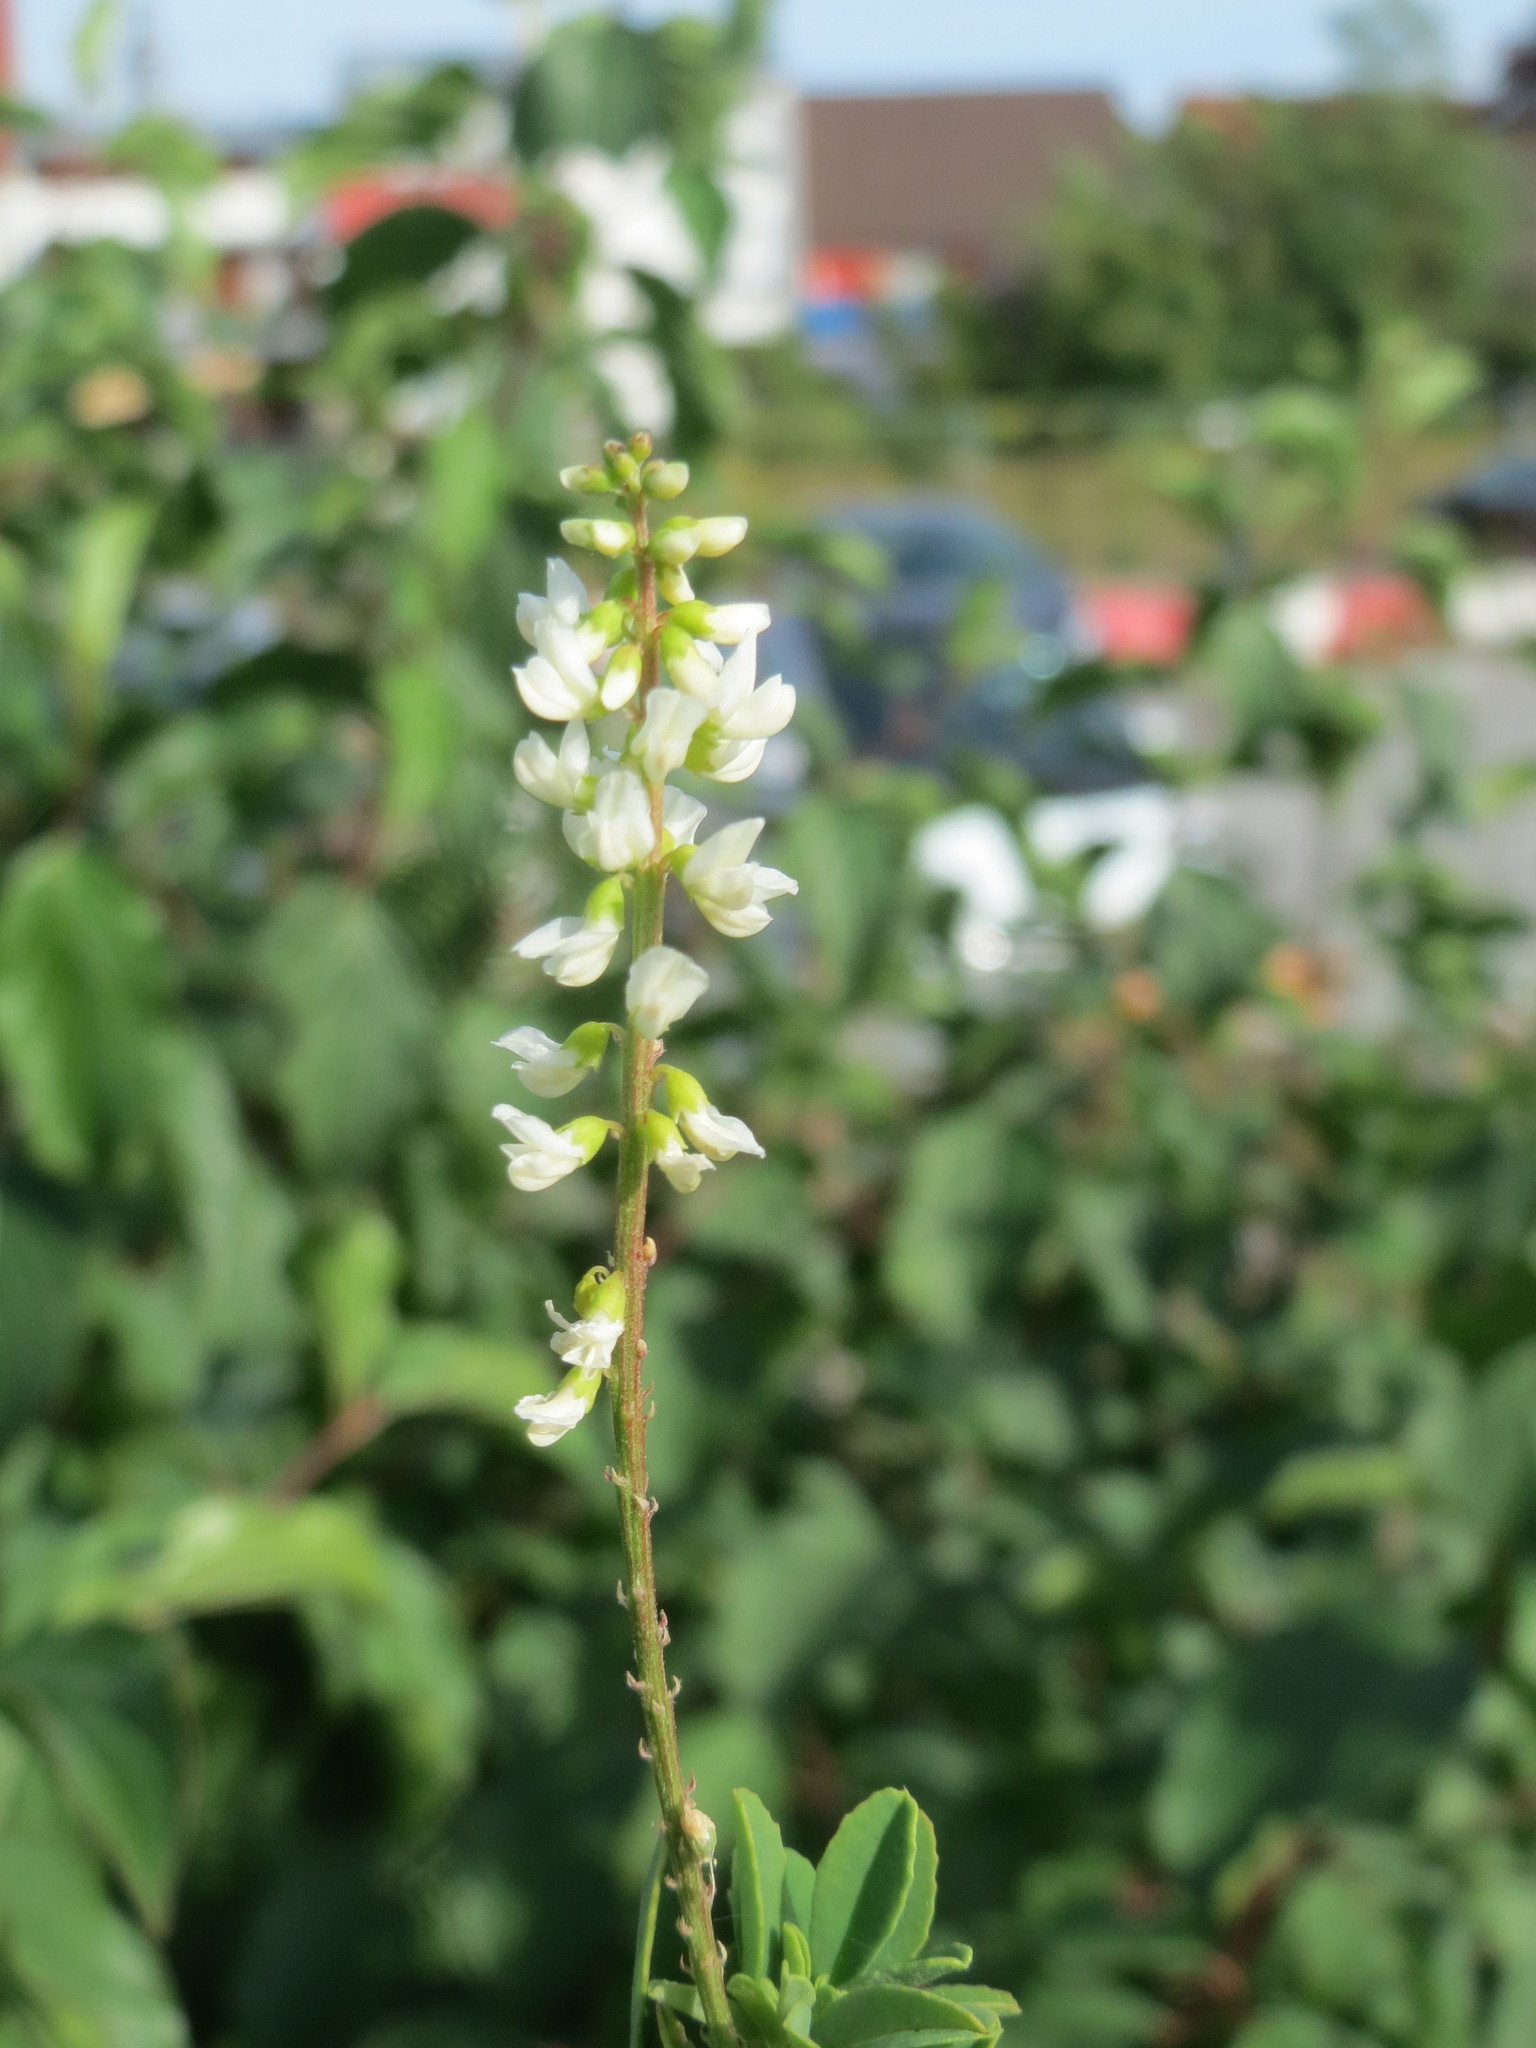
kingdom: Plantae
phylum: Tracheophyta
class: Magnoliopsida
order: Fabales
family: Fabaceae
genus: Melilotus
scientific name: Melilotus albus
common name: White melilot
